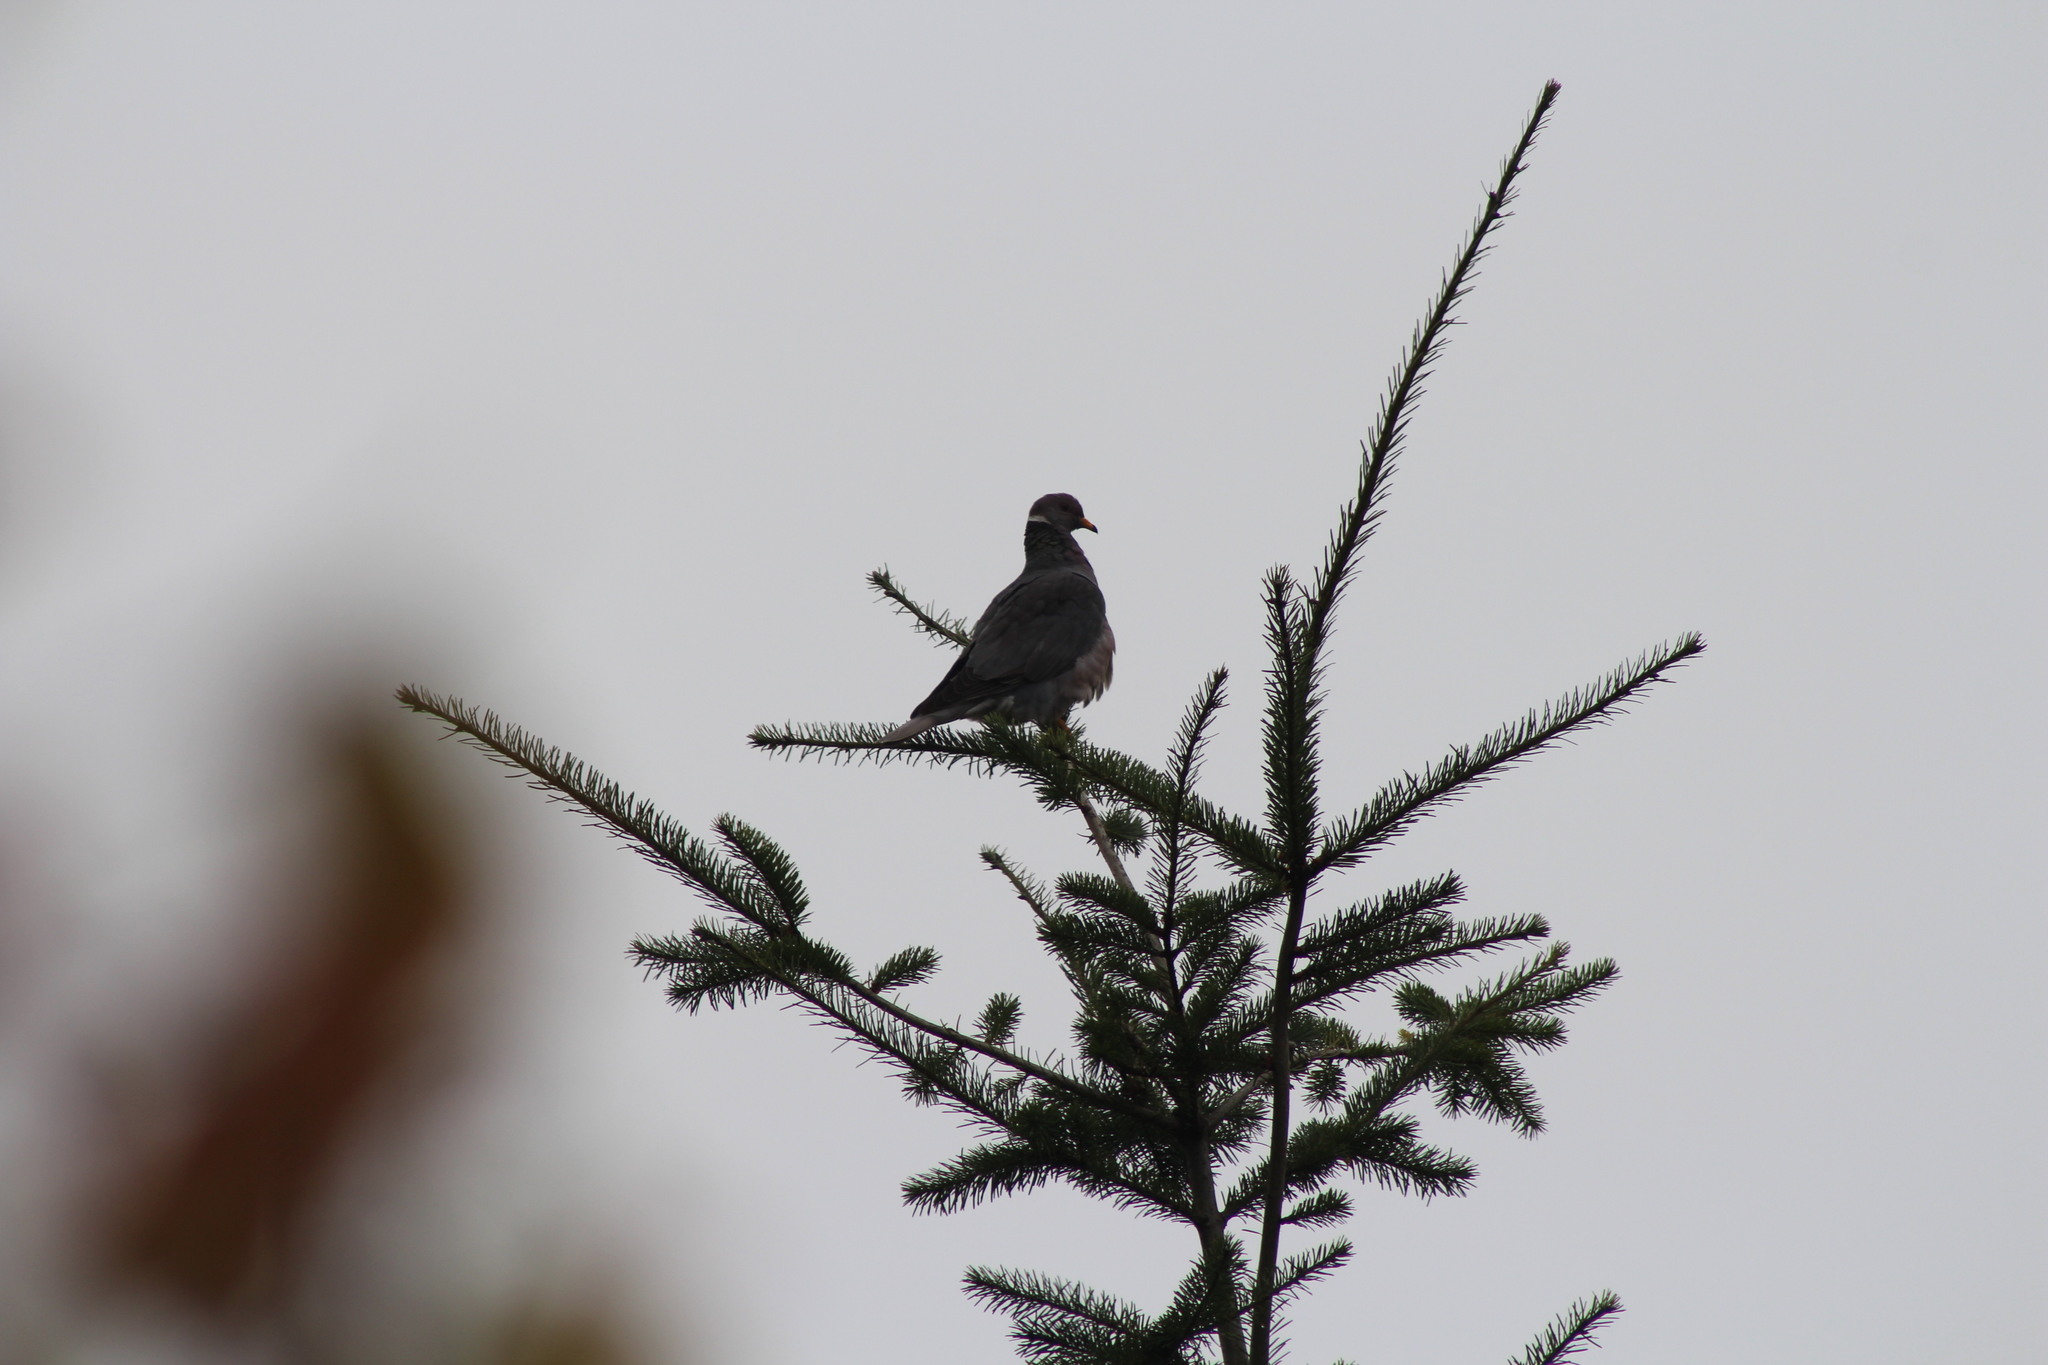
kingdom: Animalia
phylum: Chordata
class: Aves
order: Columbiformes
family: Columbidae
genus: Patagioenas
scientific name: Patagioenas fasciata
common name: Band-tailed pigeon
